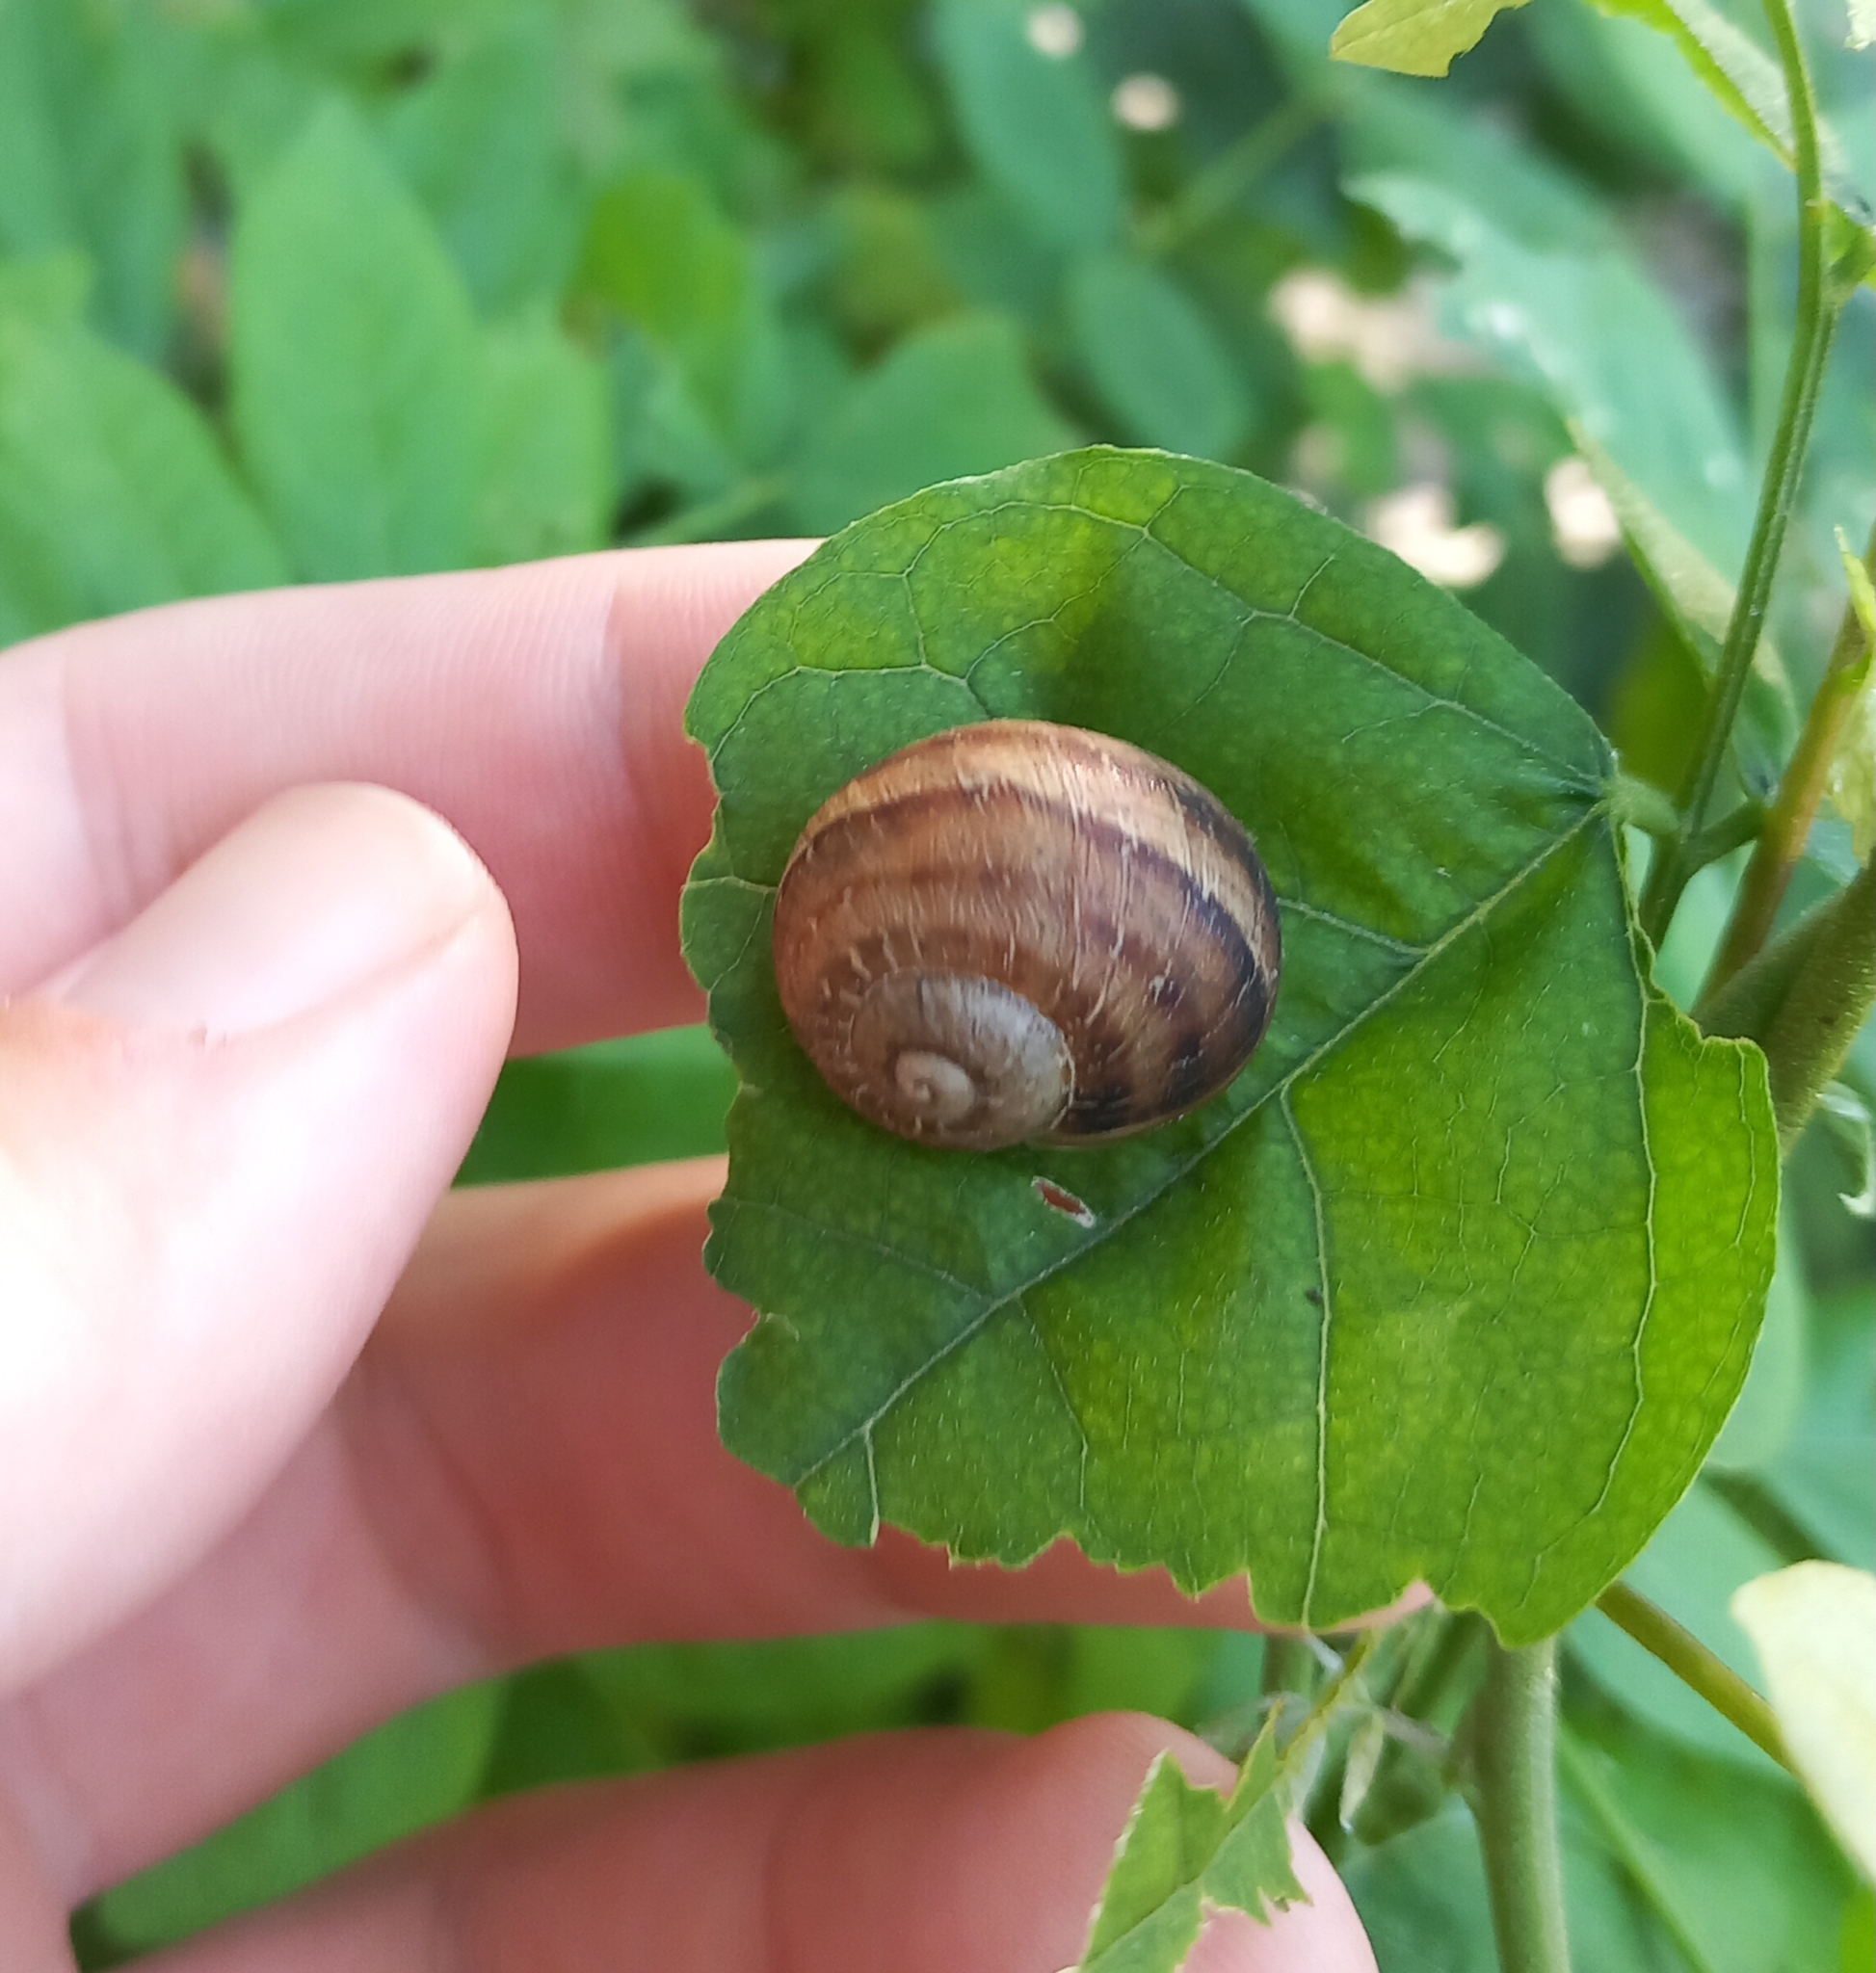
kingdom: Animalia
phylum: Mollusca
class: Gastropoda
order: Stylommatophora
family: Helicidae
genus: Cornu
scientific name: Cornu aspersum
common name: Brown garden snail
